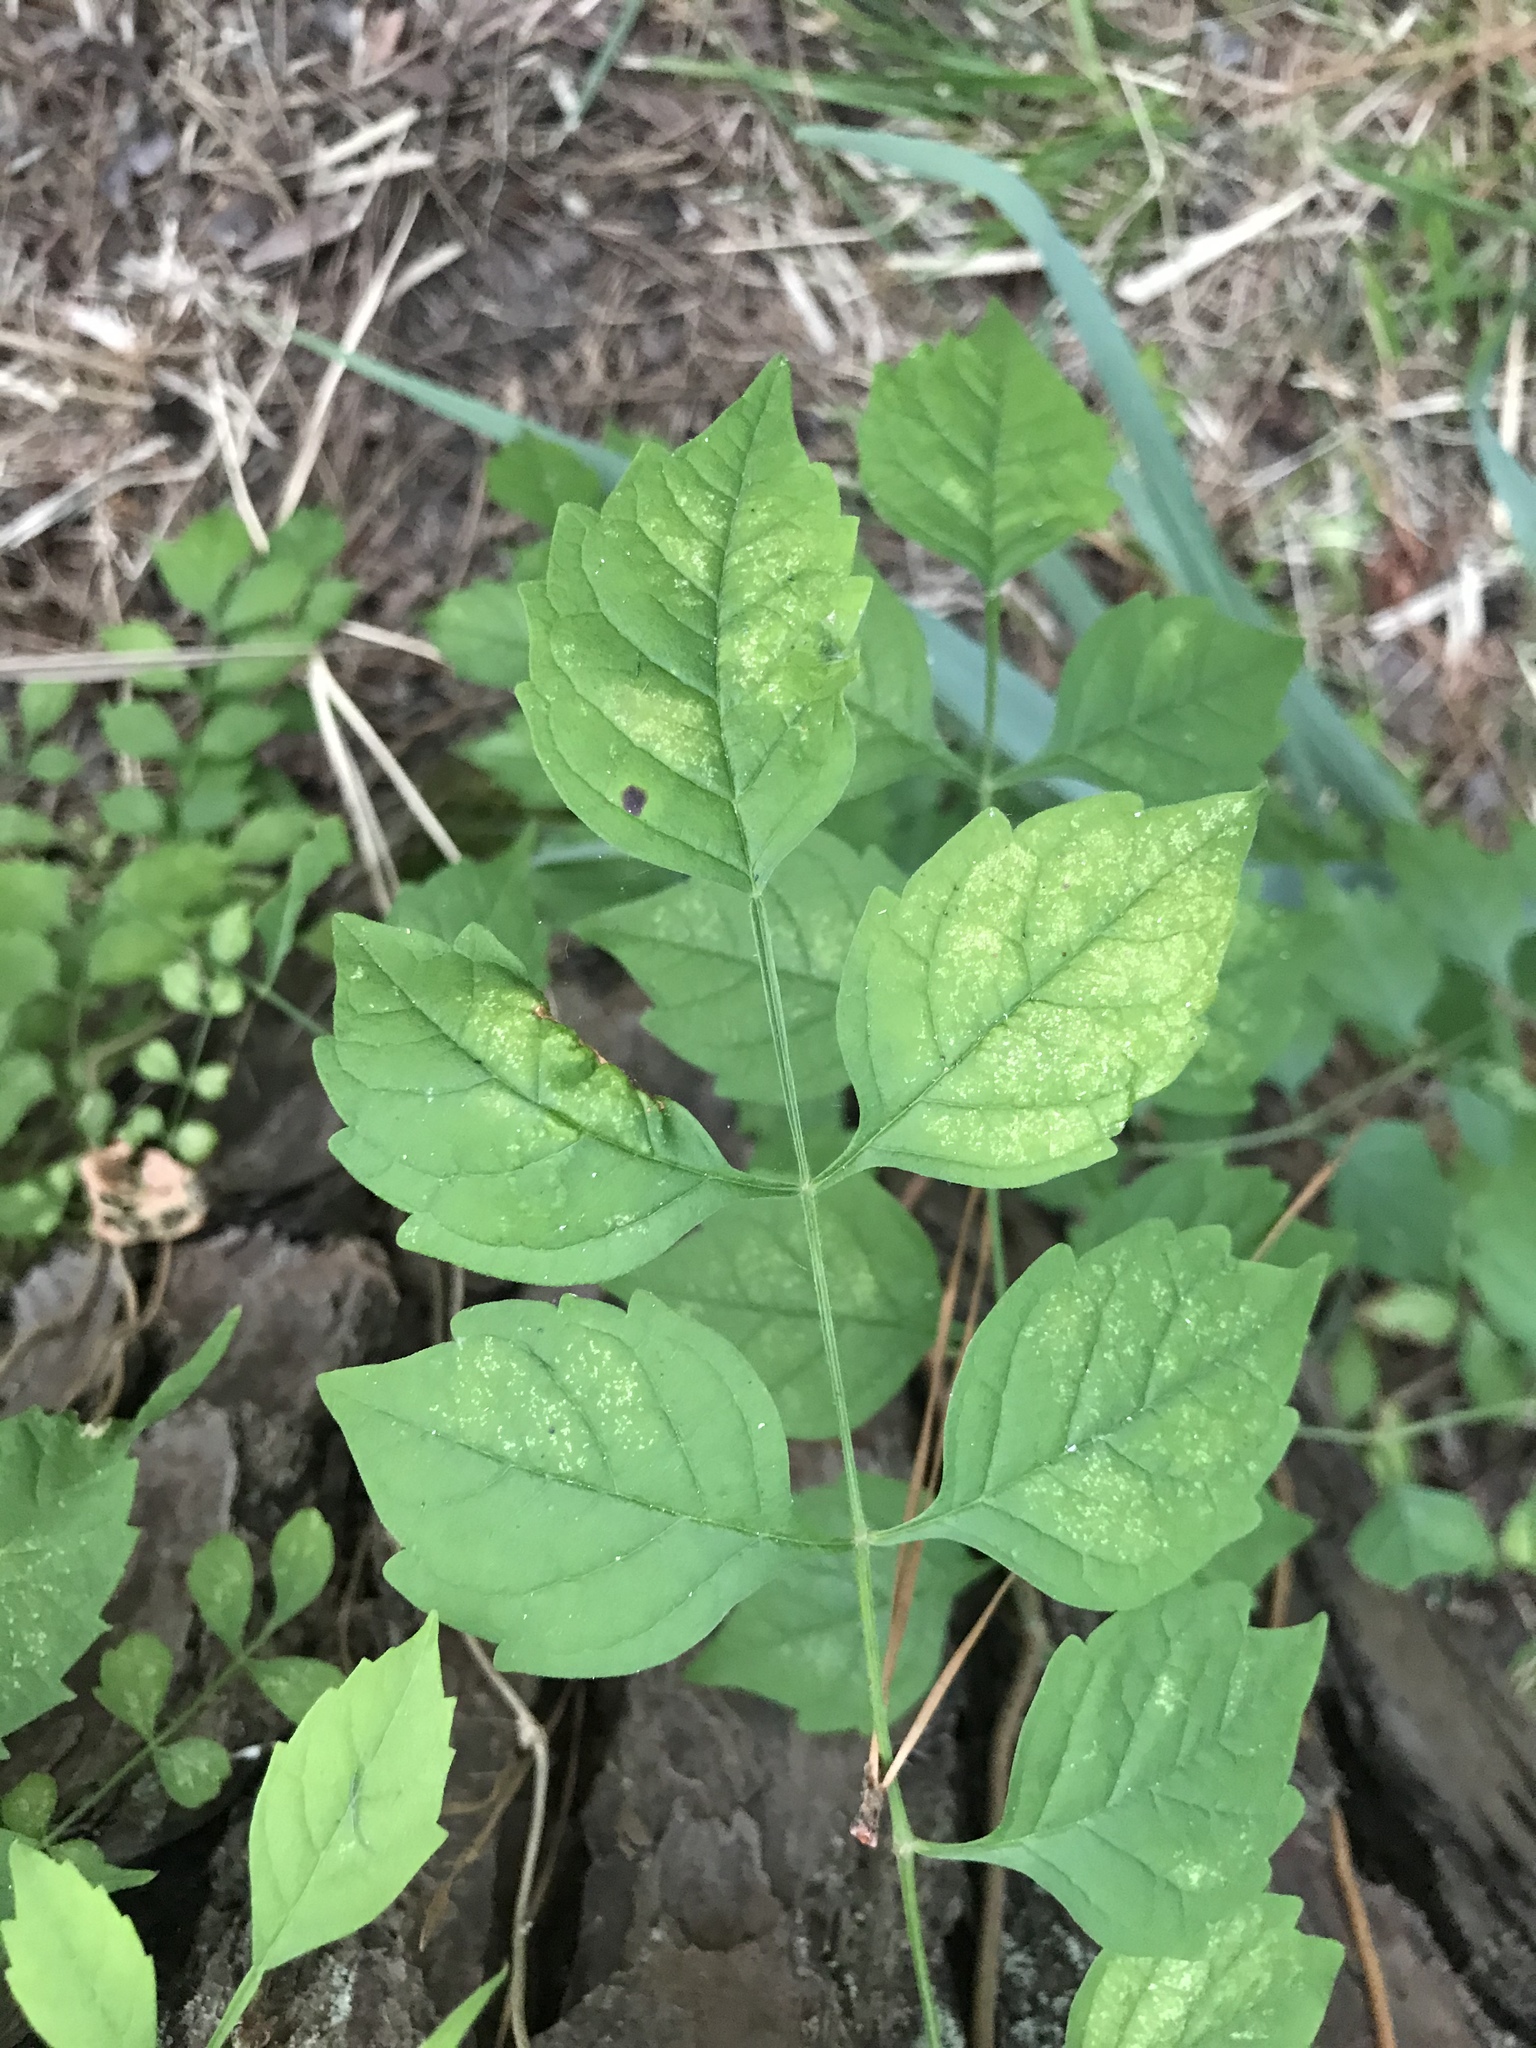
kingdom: Plantae
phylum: Tracheophyta
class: Magnoliopsida
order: Lamiales
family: Bignoniaceae
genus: Campsis
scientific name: Campsis radicans
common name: Trumpet-creeper
